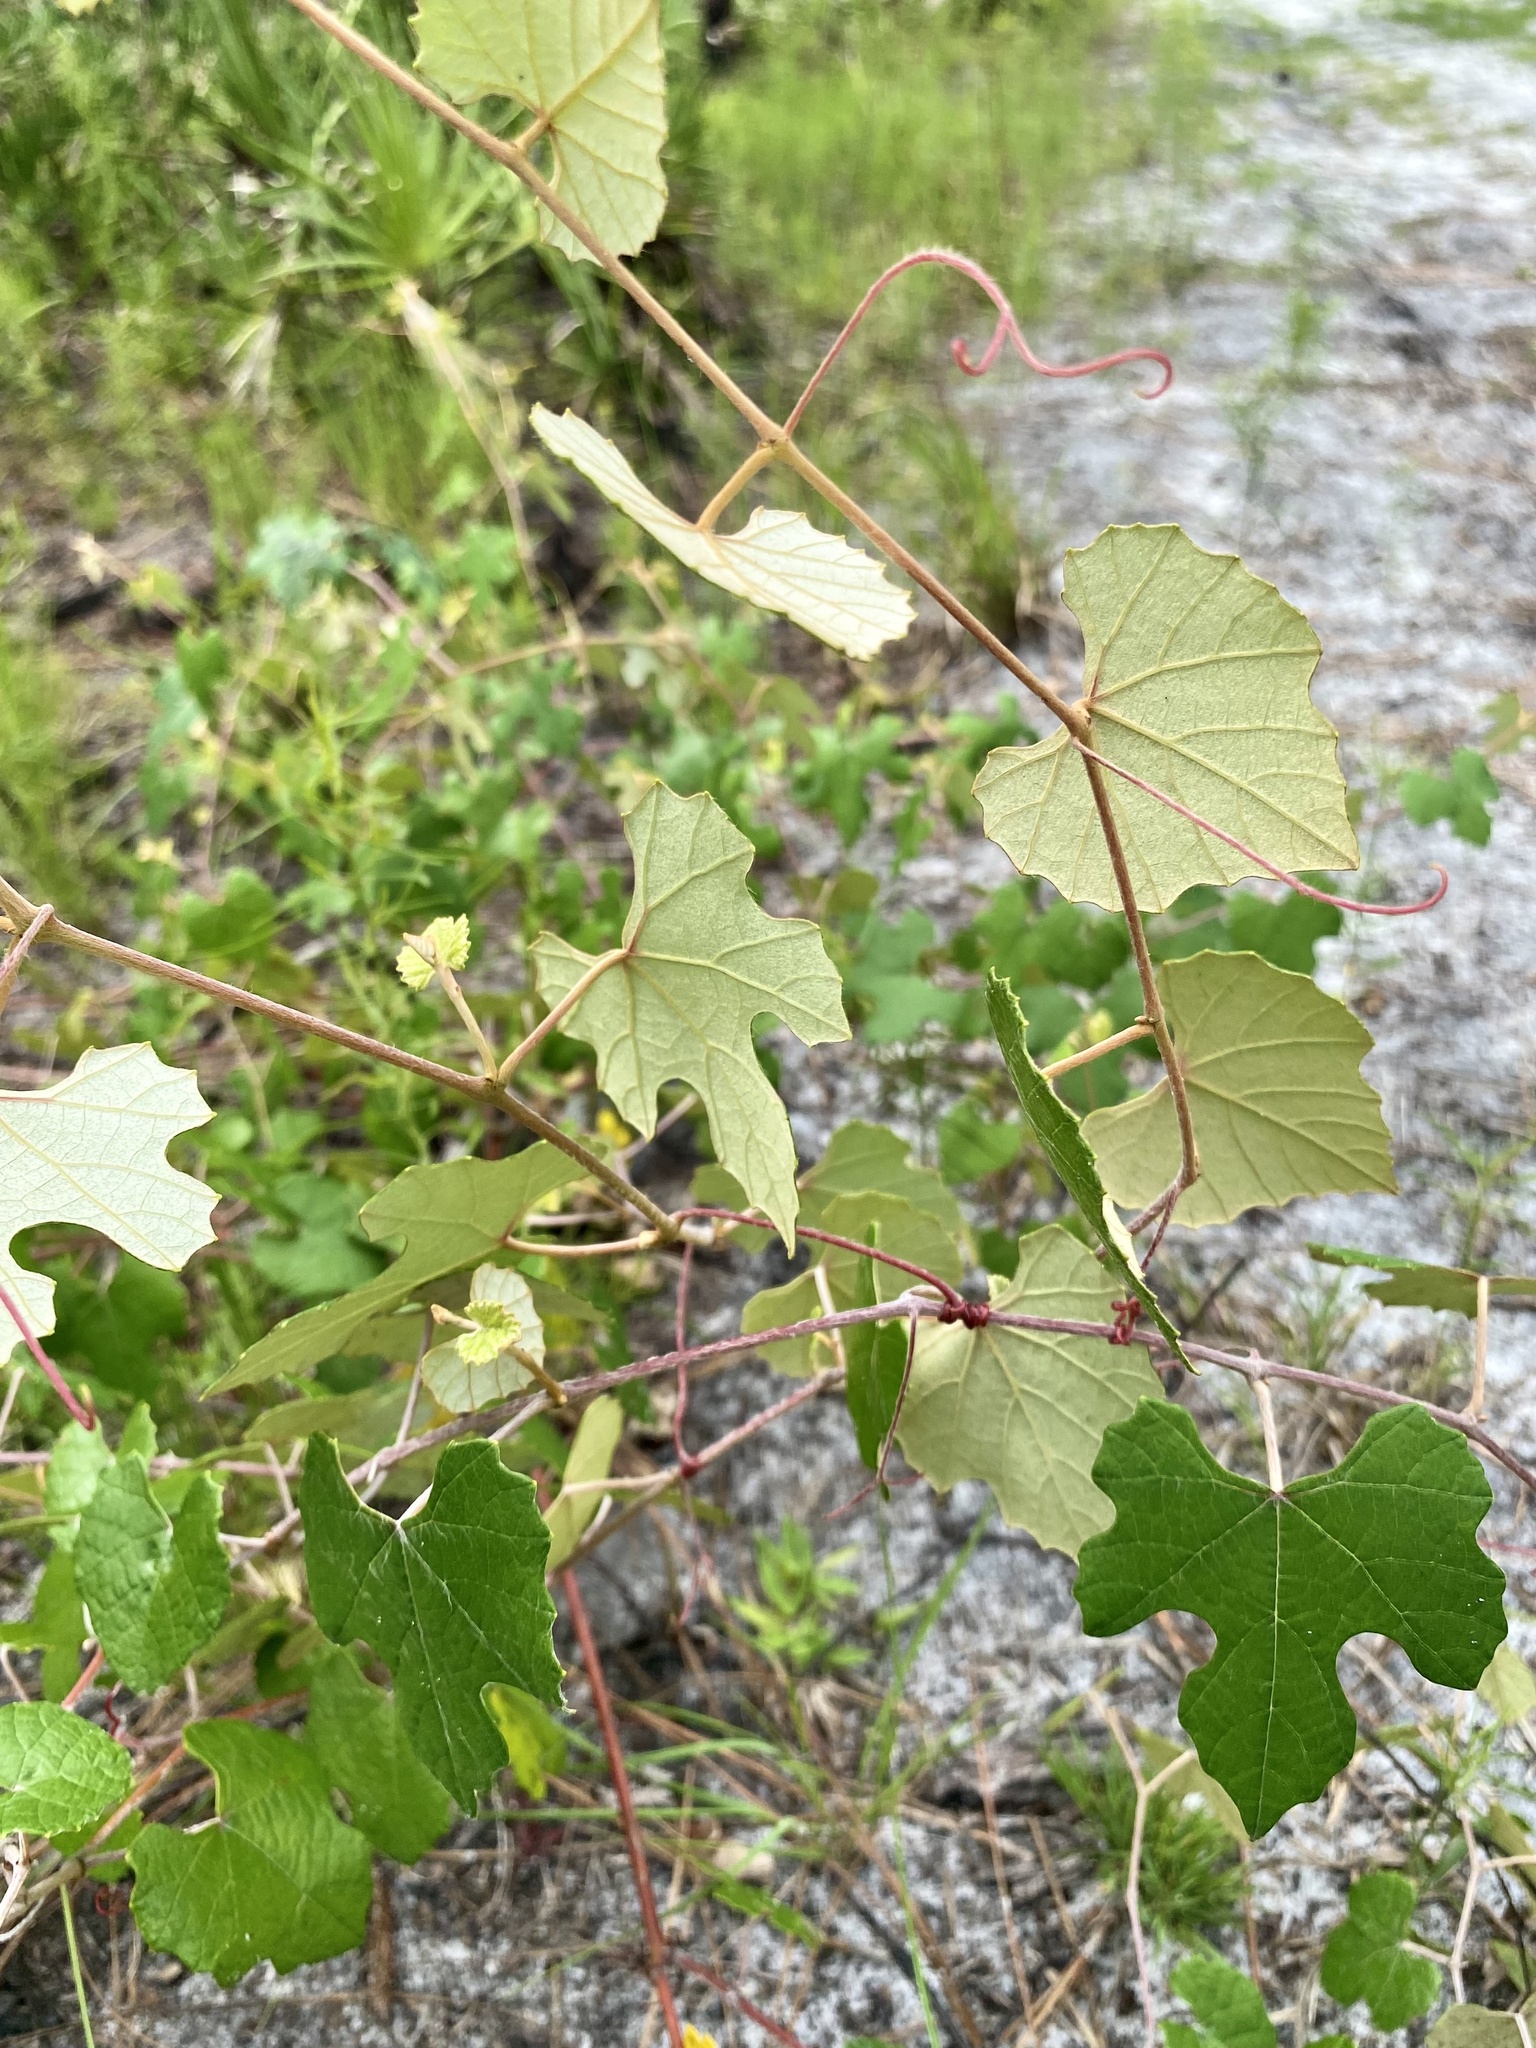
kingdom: Plantae
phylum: Tracheophyta
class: Magnoliopsida
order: Vitales
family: Vitaceae
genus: Vitis
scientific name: Vitis shuttleworthii
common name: Caloosa grape
